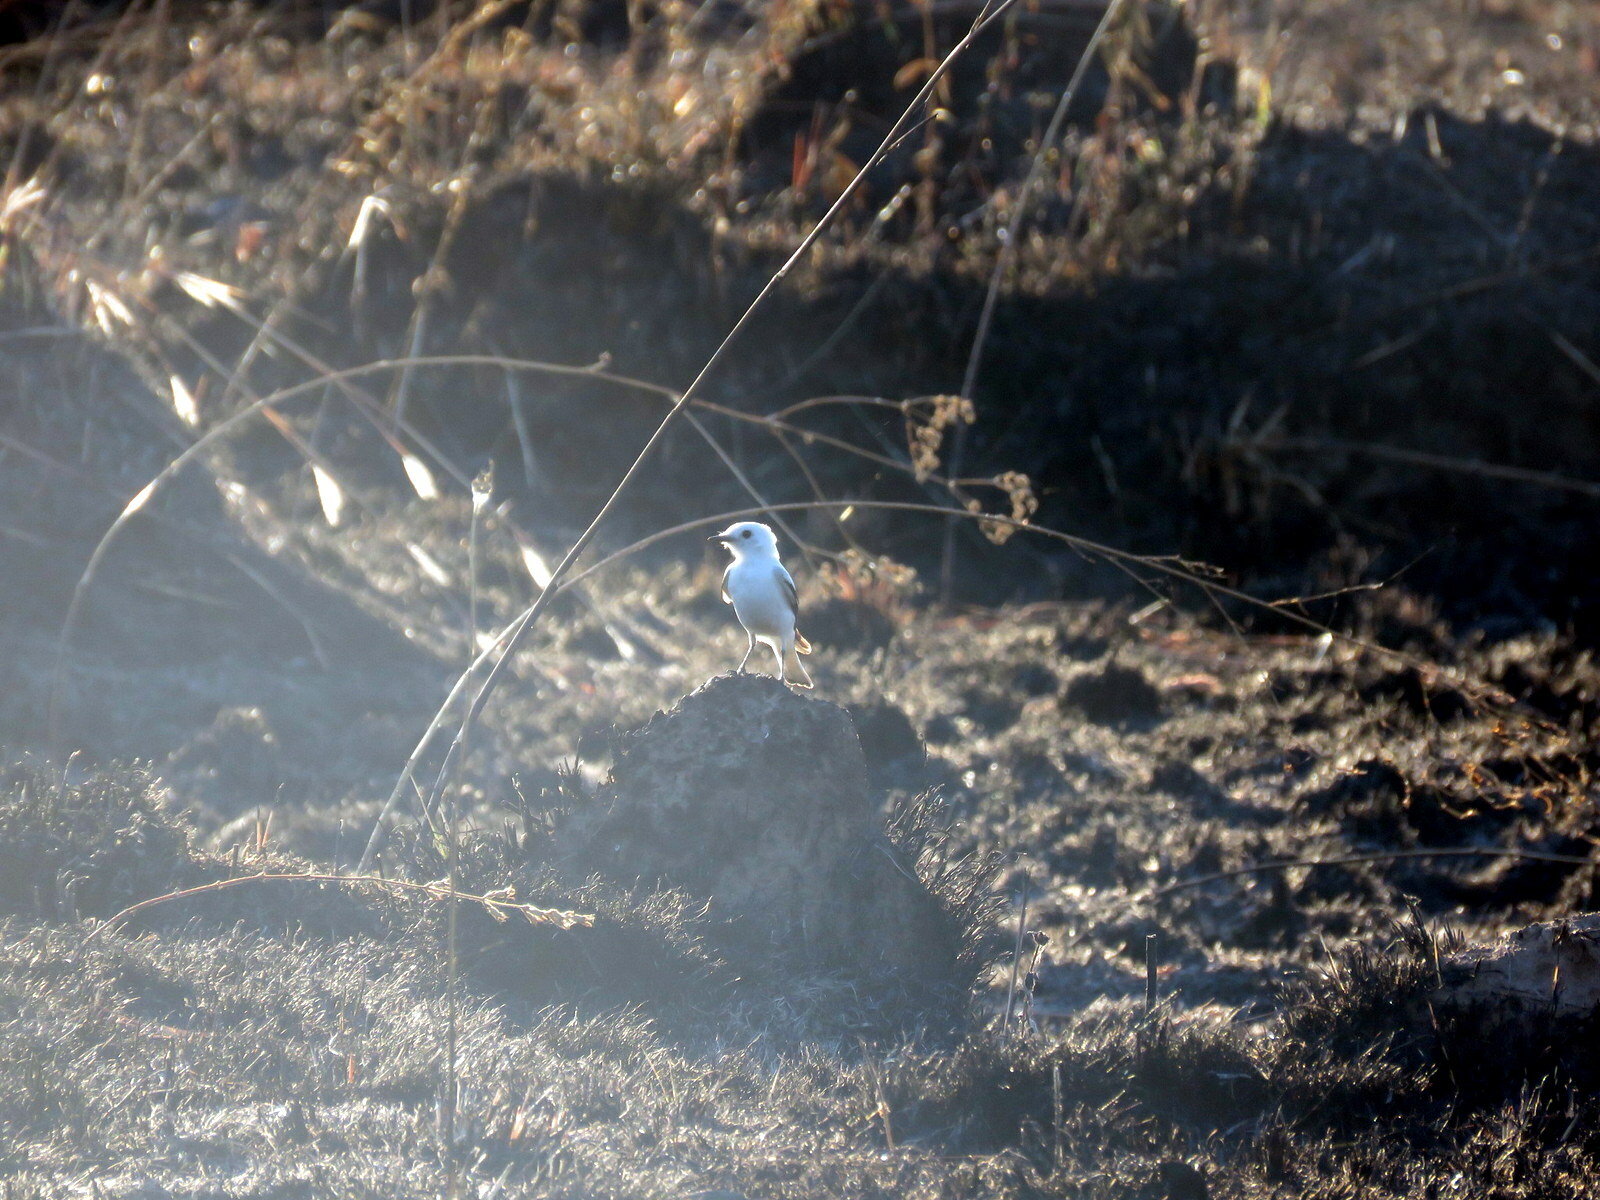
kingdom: Animalia
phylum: Chordata
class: Aves
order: Passeriformes
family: Tyrannidae
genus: Xolmis
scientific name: Xolmis irupero
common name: White monjita
